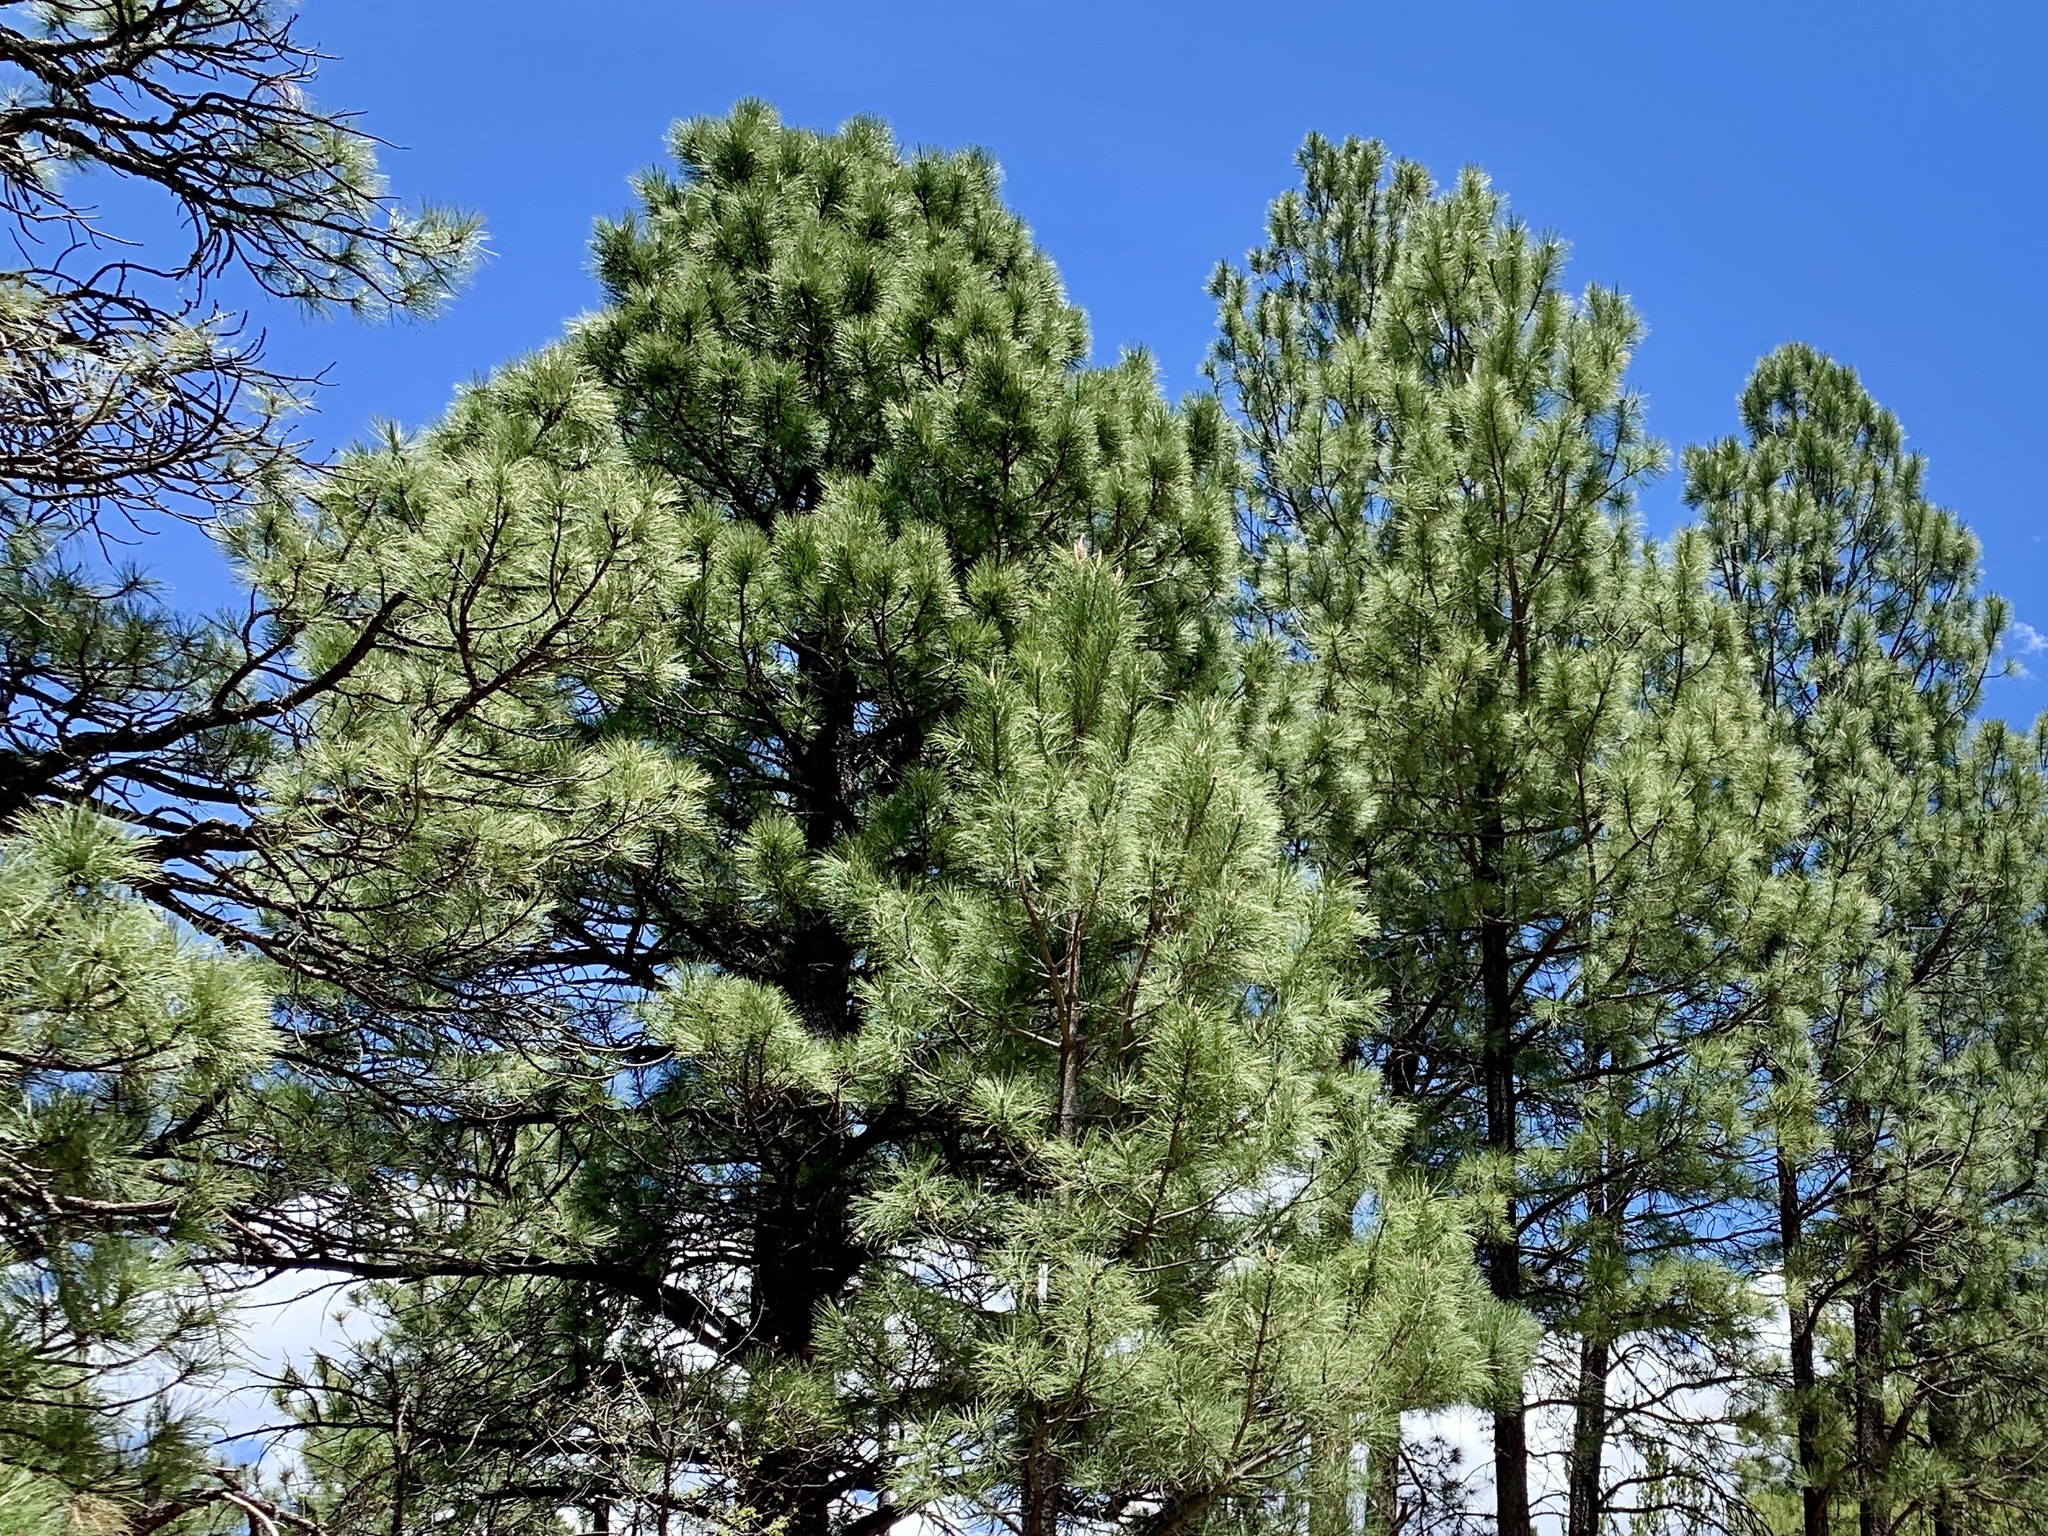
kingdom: Plantae
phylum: Tracheophyta
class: Pinopsida
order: Pinales
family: Pinaceae
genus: Pinus
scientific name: Pinus ponderosa
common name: Western yellow-pine
